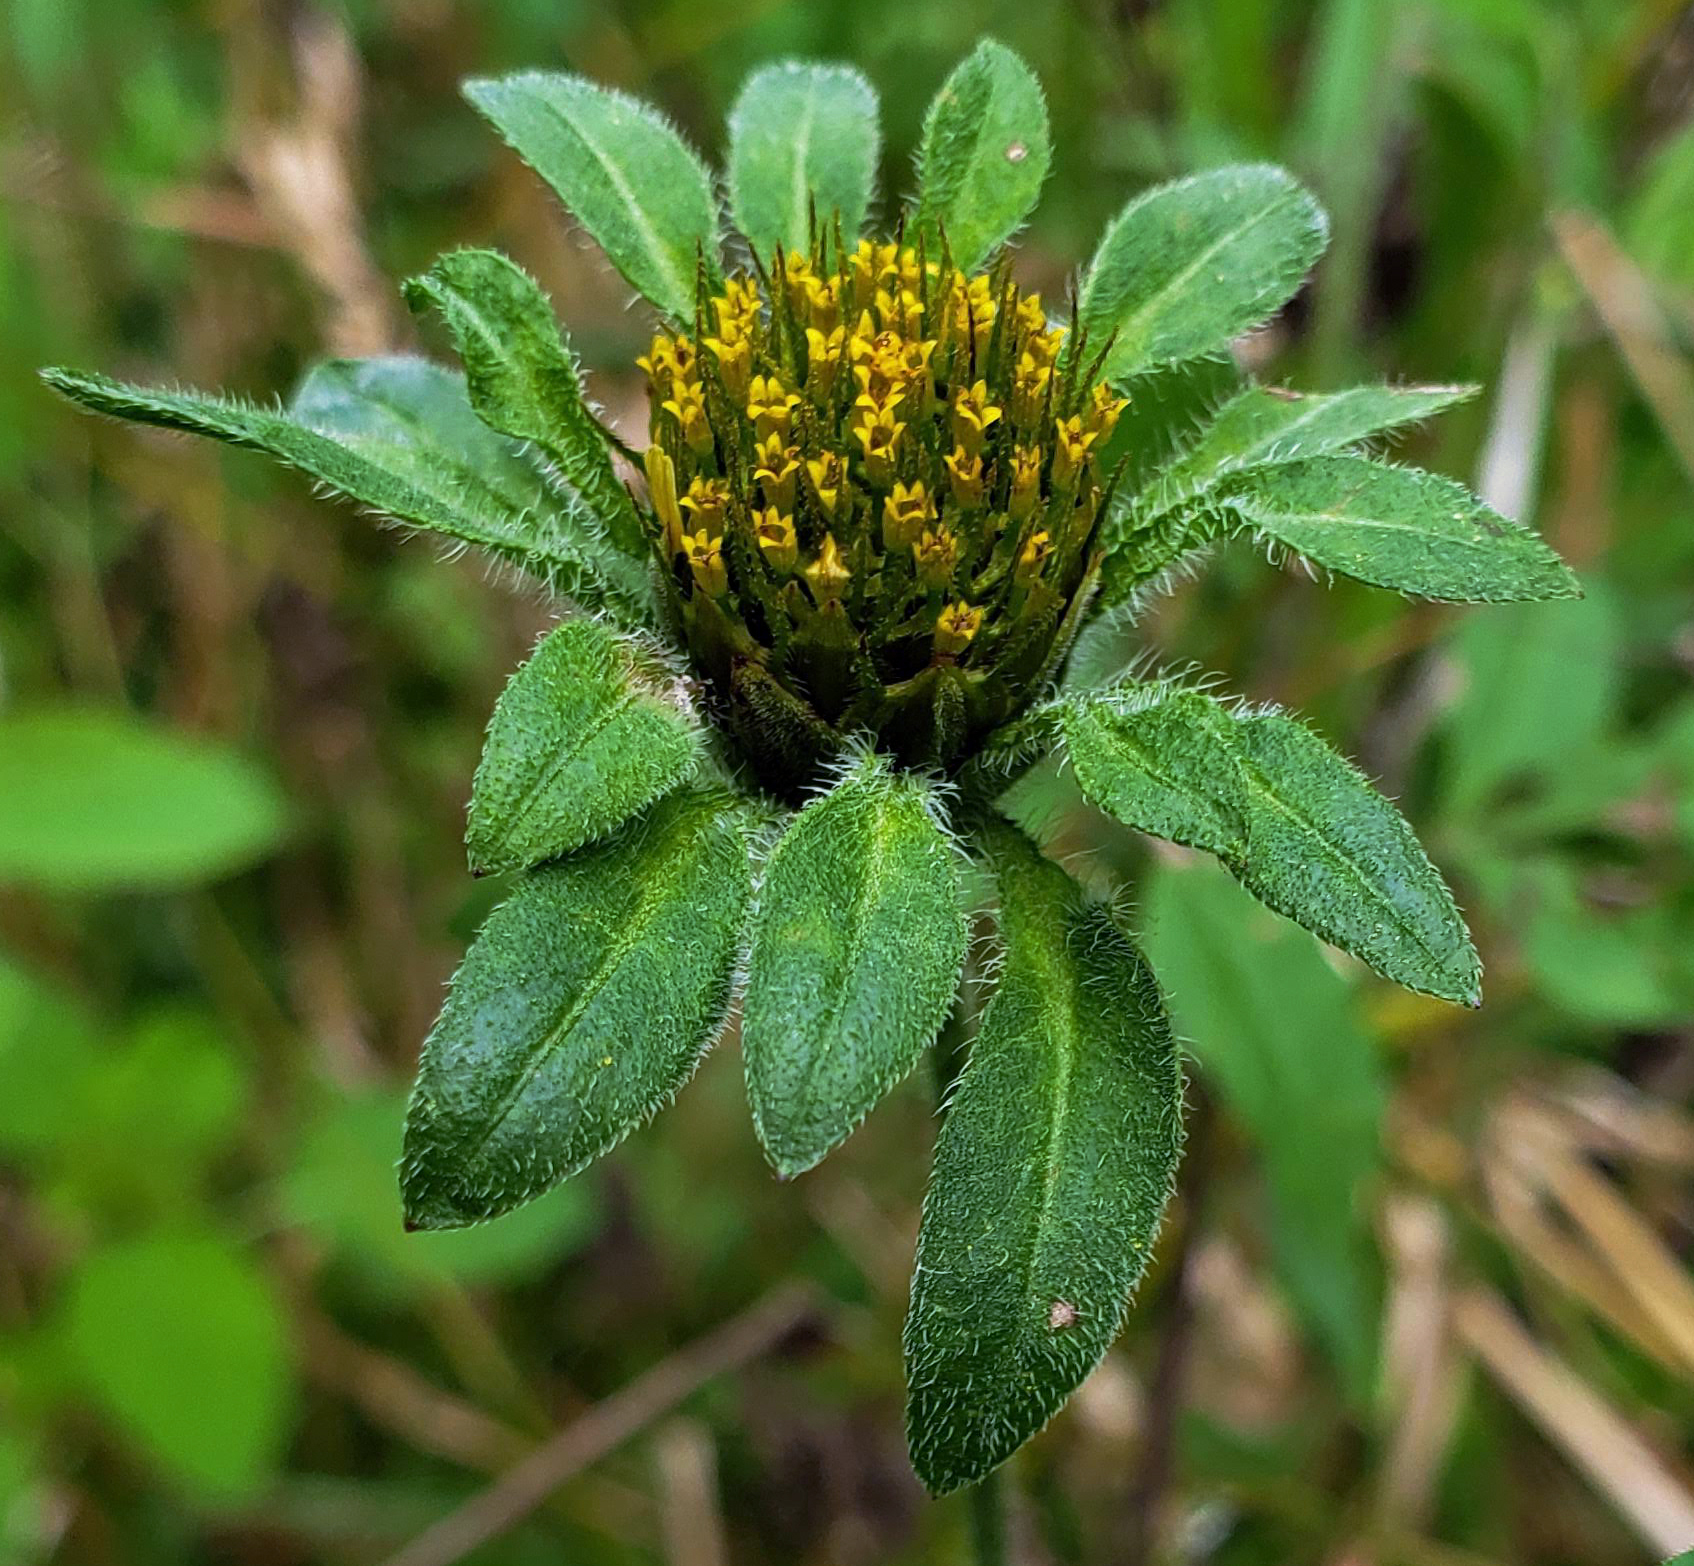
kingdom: Plantae
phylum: Tracheophyta
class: Magnoliopsida
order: Asterales
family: Asteraceae
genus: Bidens
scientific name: Bidens vulgata
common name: Tall beggarticks
